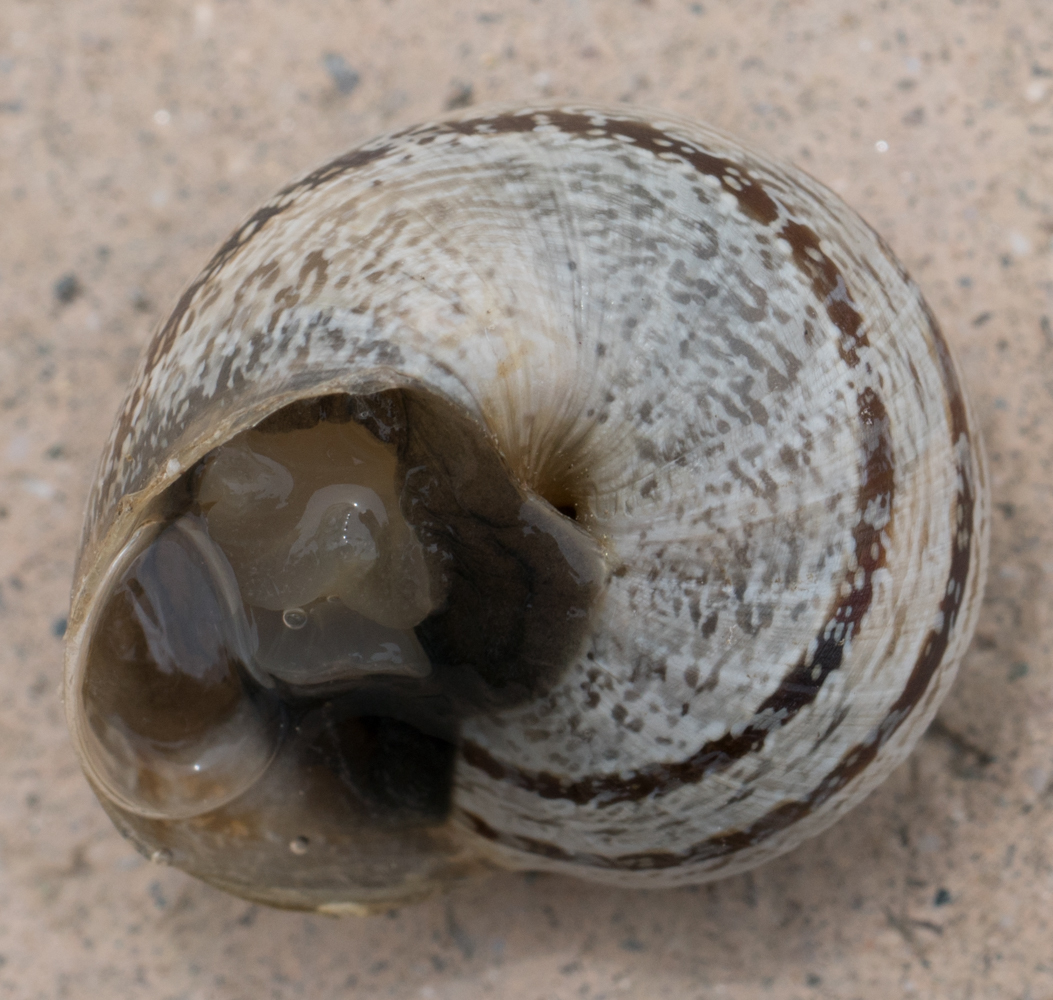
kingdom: Animalia
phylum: Mollusca
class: Gastropoda
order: Stylommatophora
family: Helicidae
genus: Otala
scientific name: Otala lactea
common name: Milk snail
